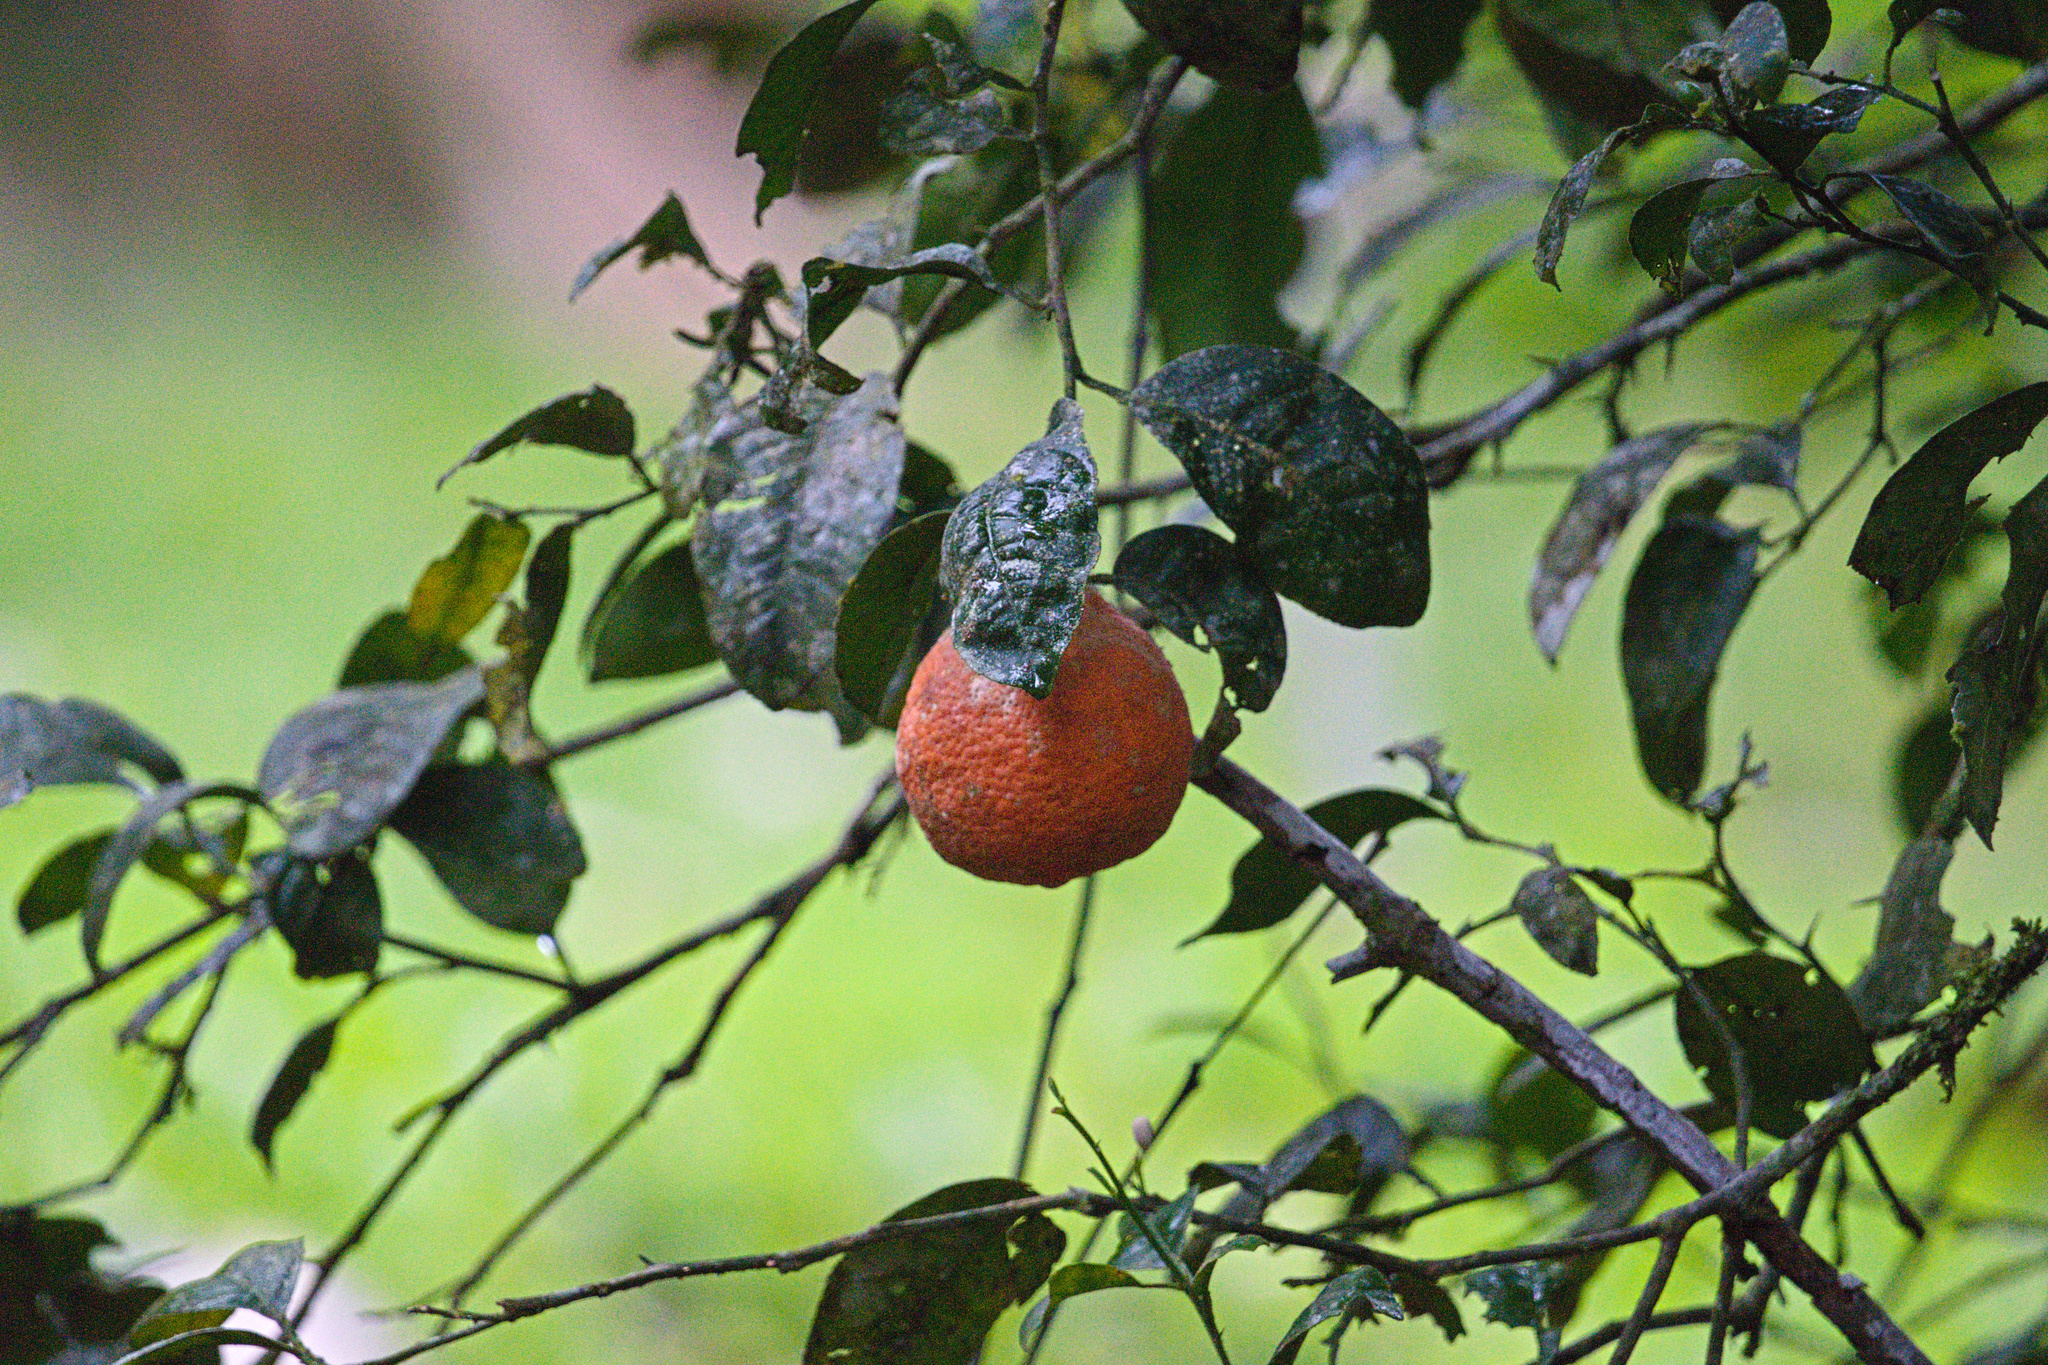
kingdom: Plantae
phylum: Tracheophyta
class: Magnoliopsida
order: Sapindales
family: Rutaceae
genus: Citrus
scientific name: Citrus limon
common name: Lemon
